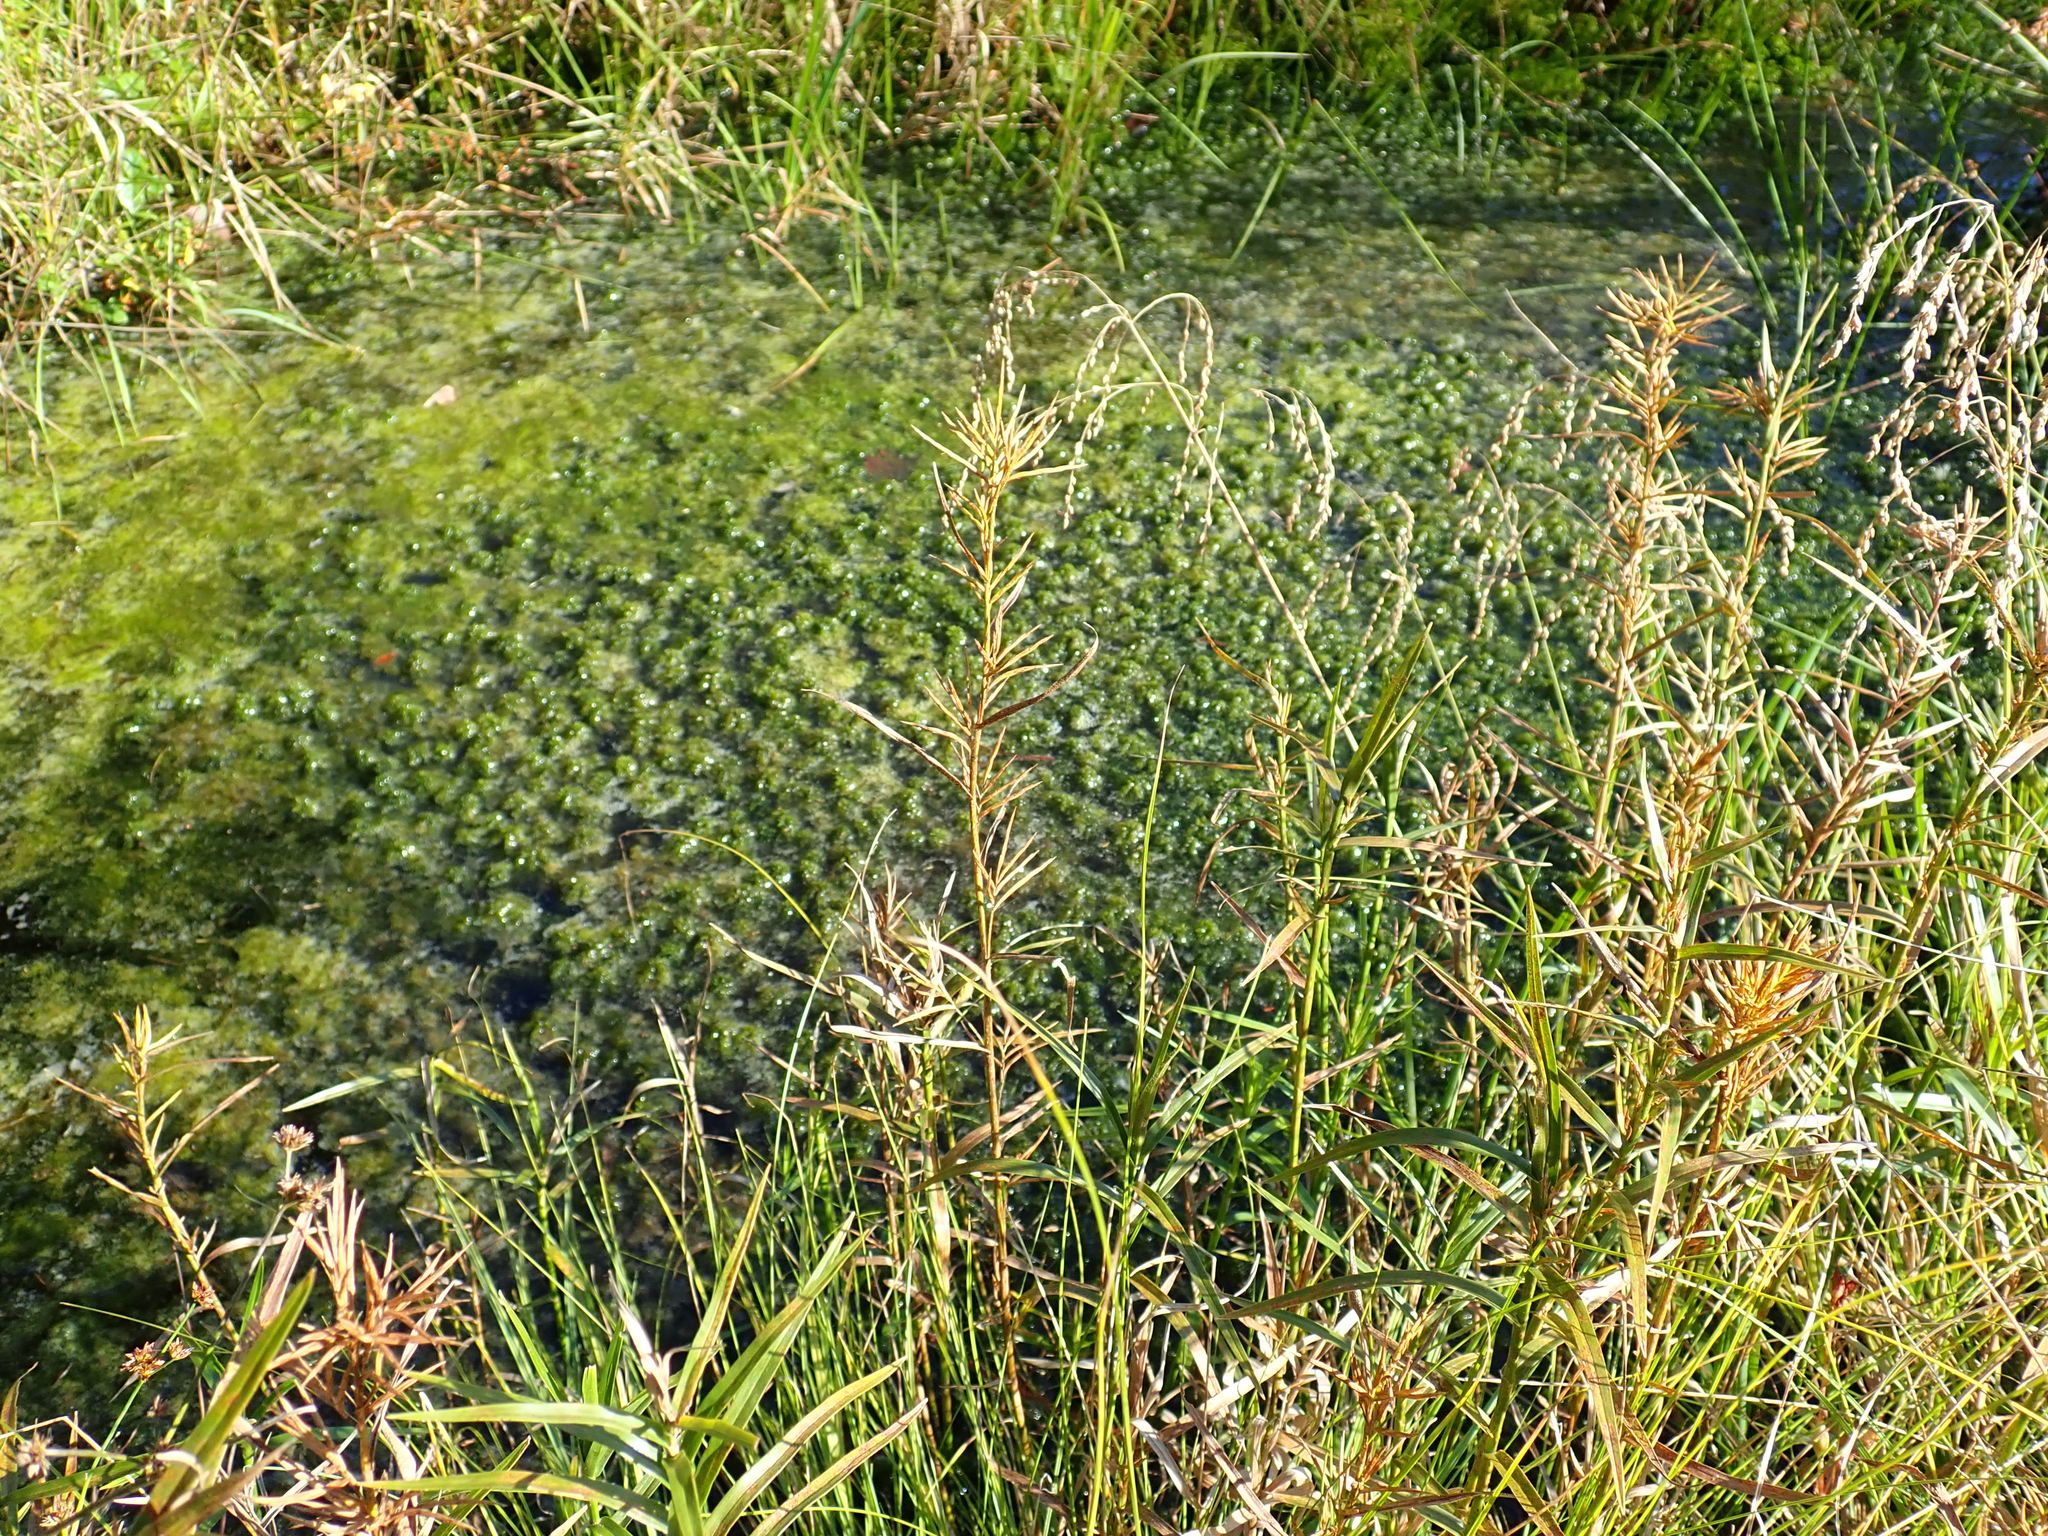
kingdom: Plantae
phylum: Tracheophyta
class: Liliopsida
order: Poales
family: Cyperaceae
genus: Dulichium
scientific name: Dulichium arundinaceum
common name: Three-way sedge
